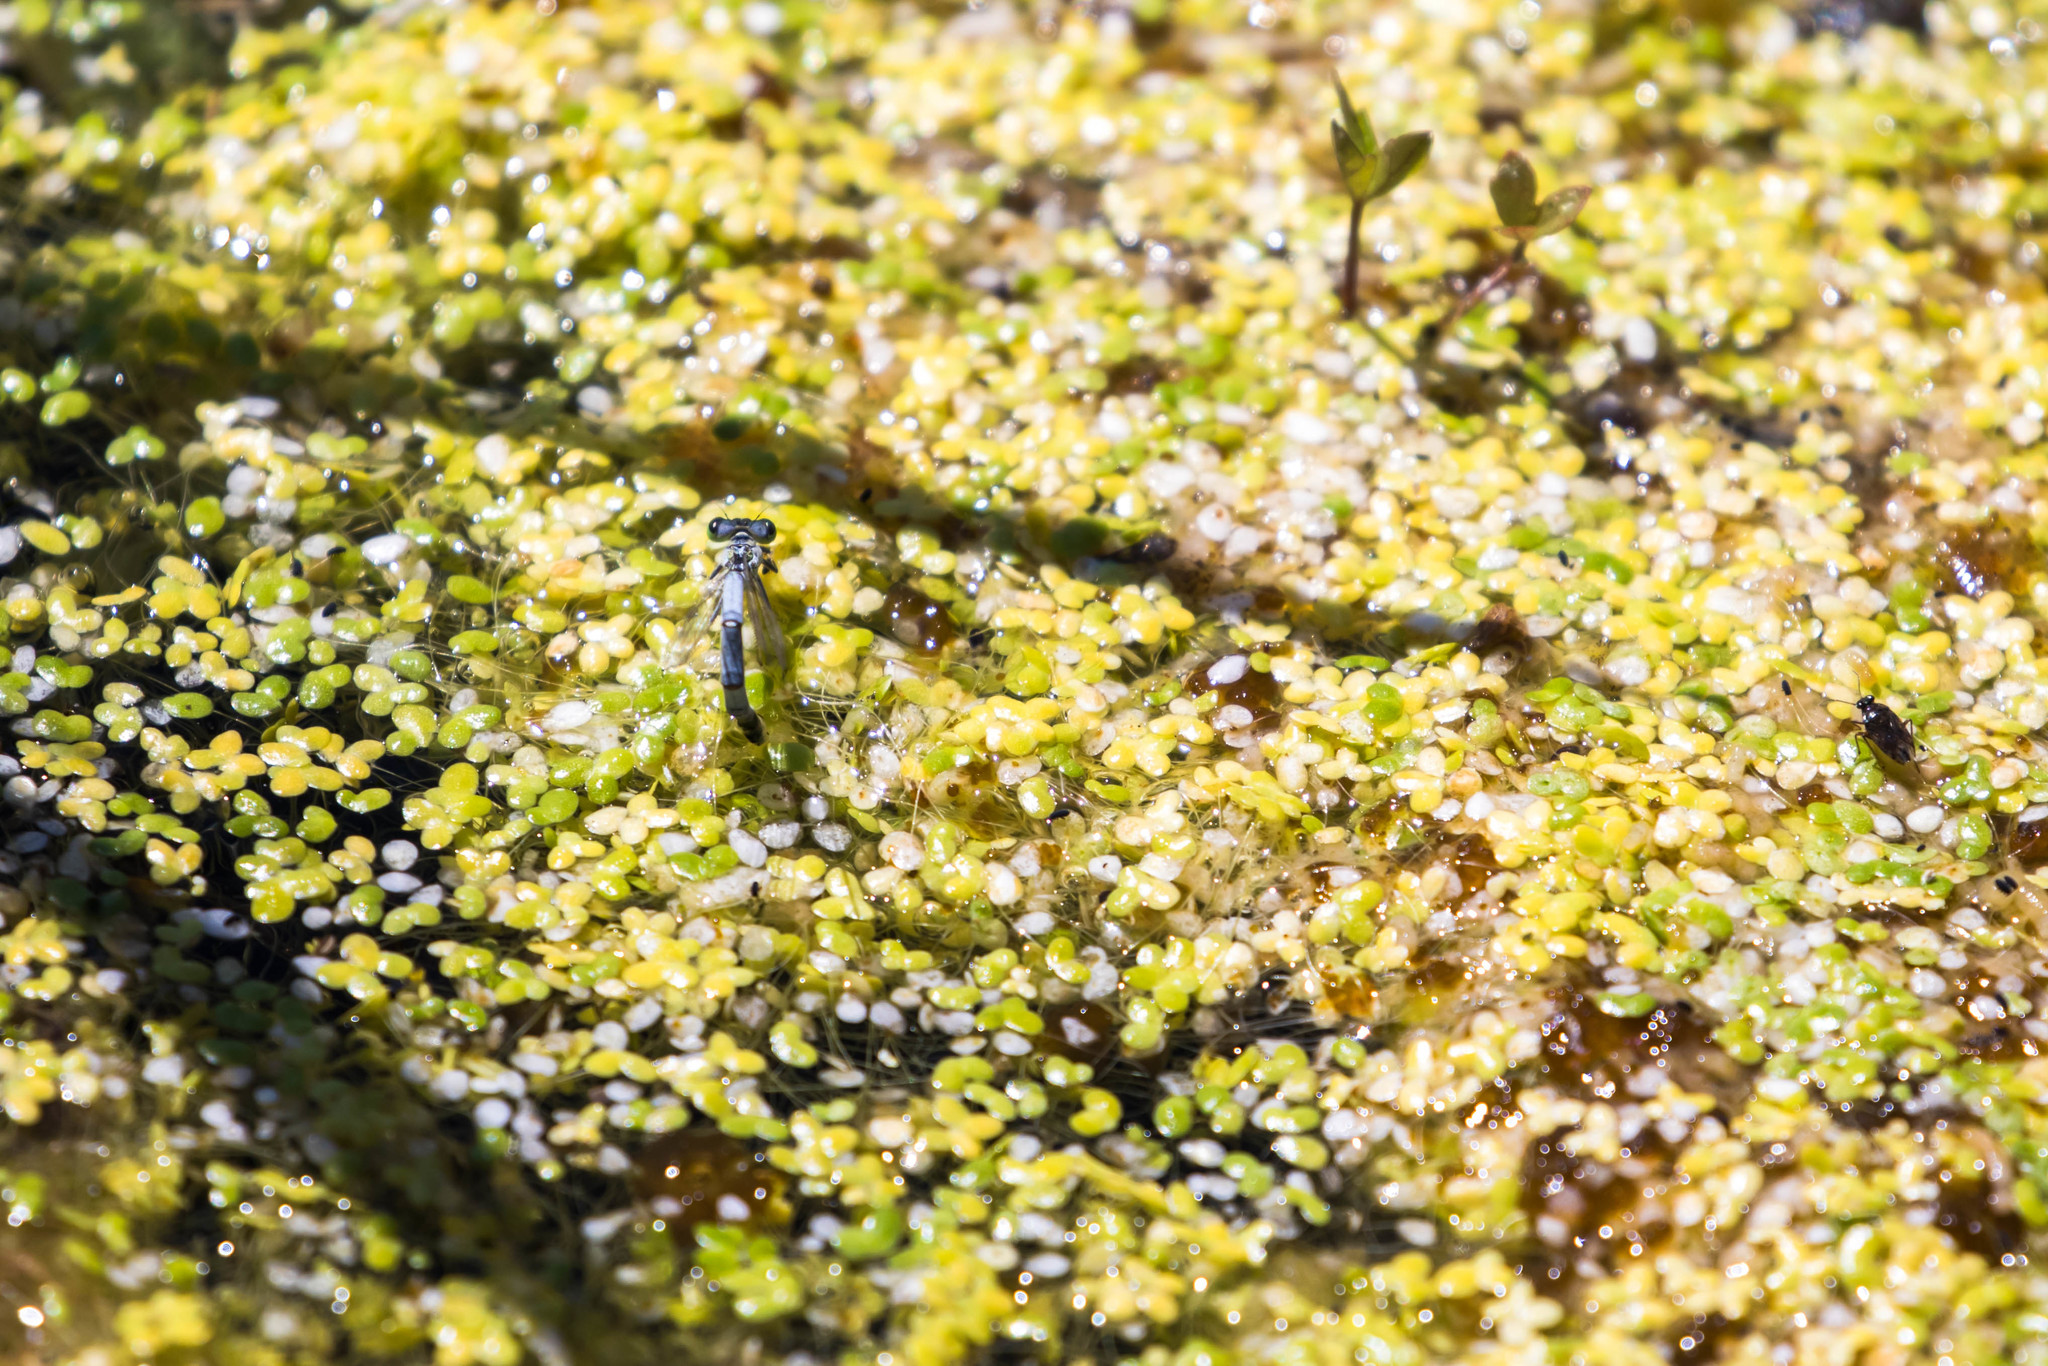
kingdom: Animalia
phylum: Arthropoda
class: Insecta
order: Odonata
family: Coenagrionidae
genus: Ischnura
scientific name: Ischnura perparva
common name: Western forktail
